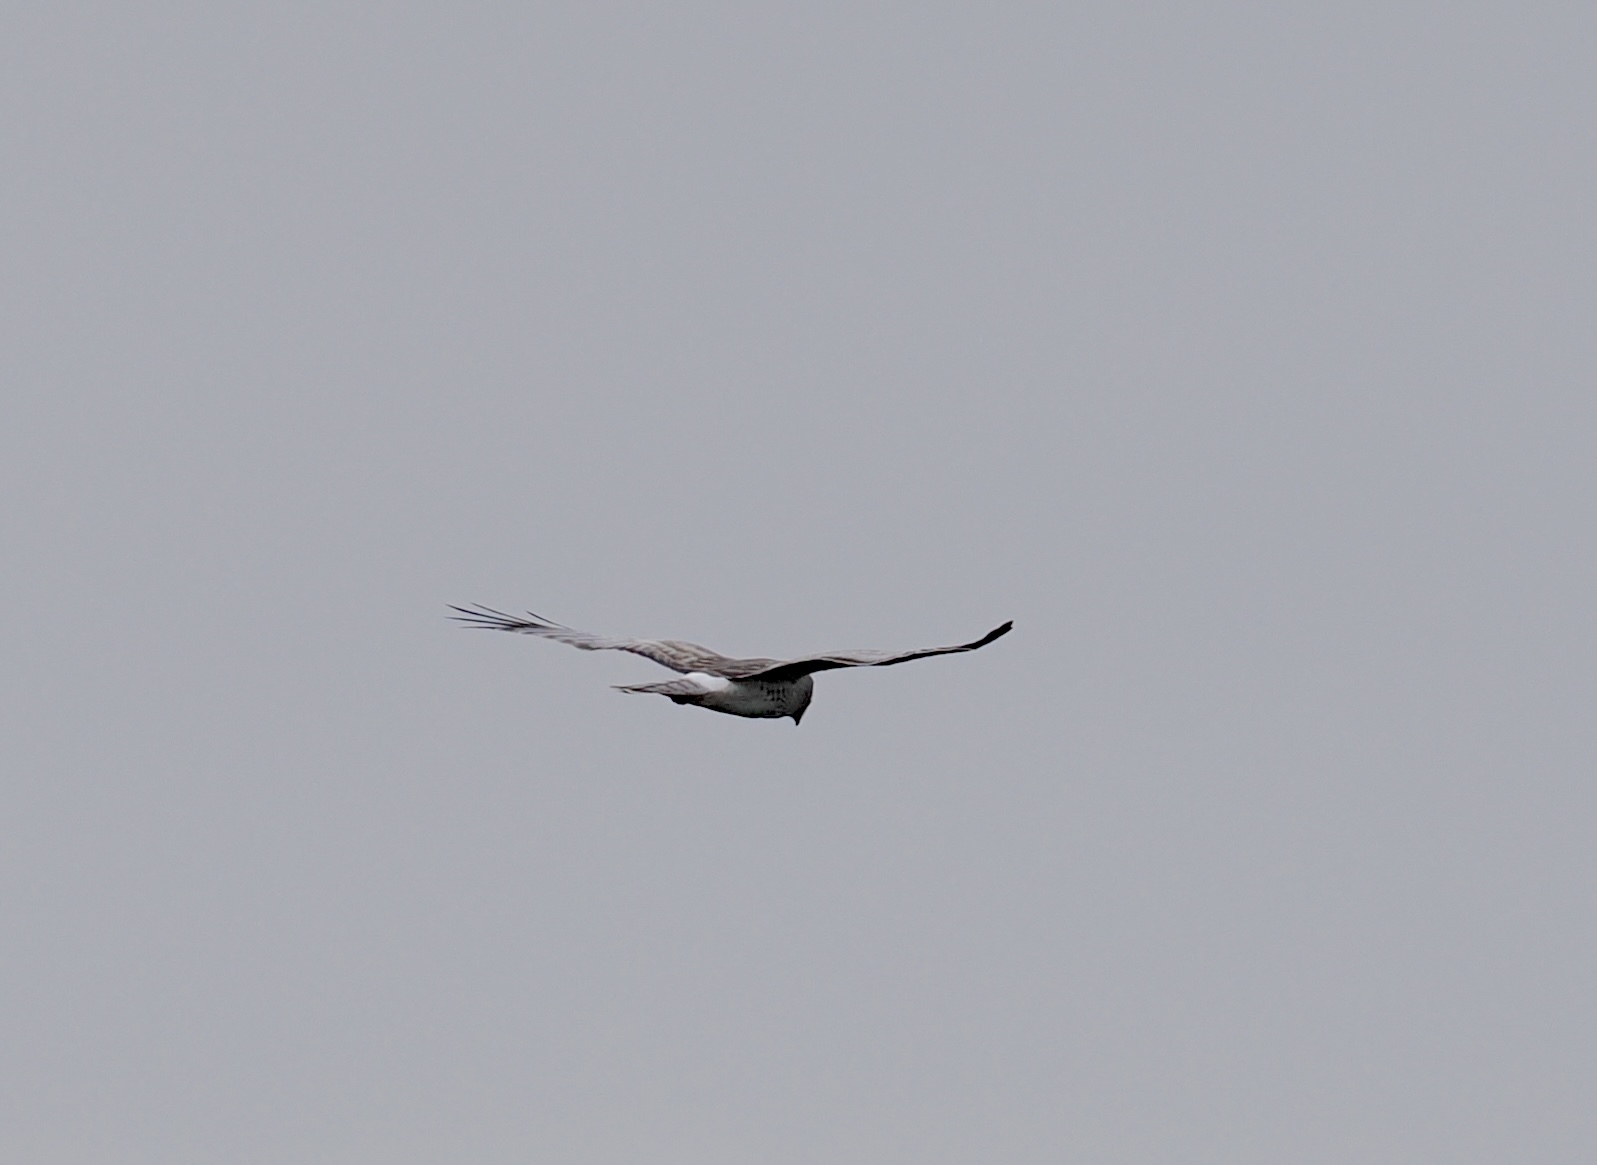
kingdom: Animalia
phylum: Chordata
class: Aves
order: Accipitriformes
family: Accipitridae
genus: Circus
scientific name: Circus cyaneus
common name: Hen harrier
